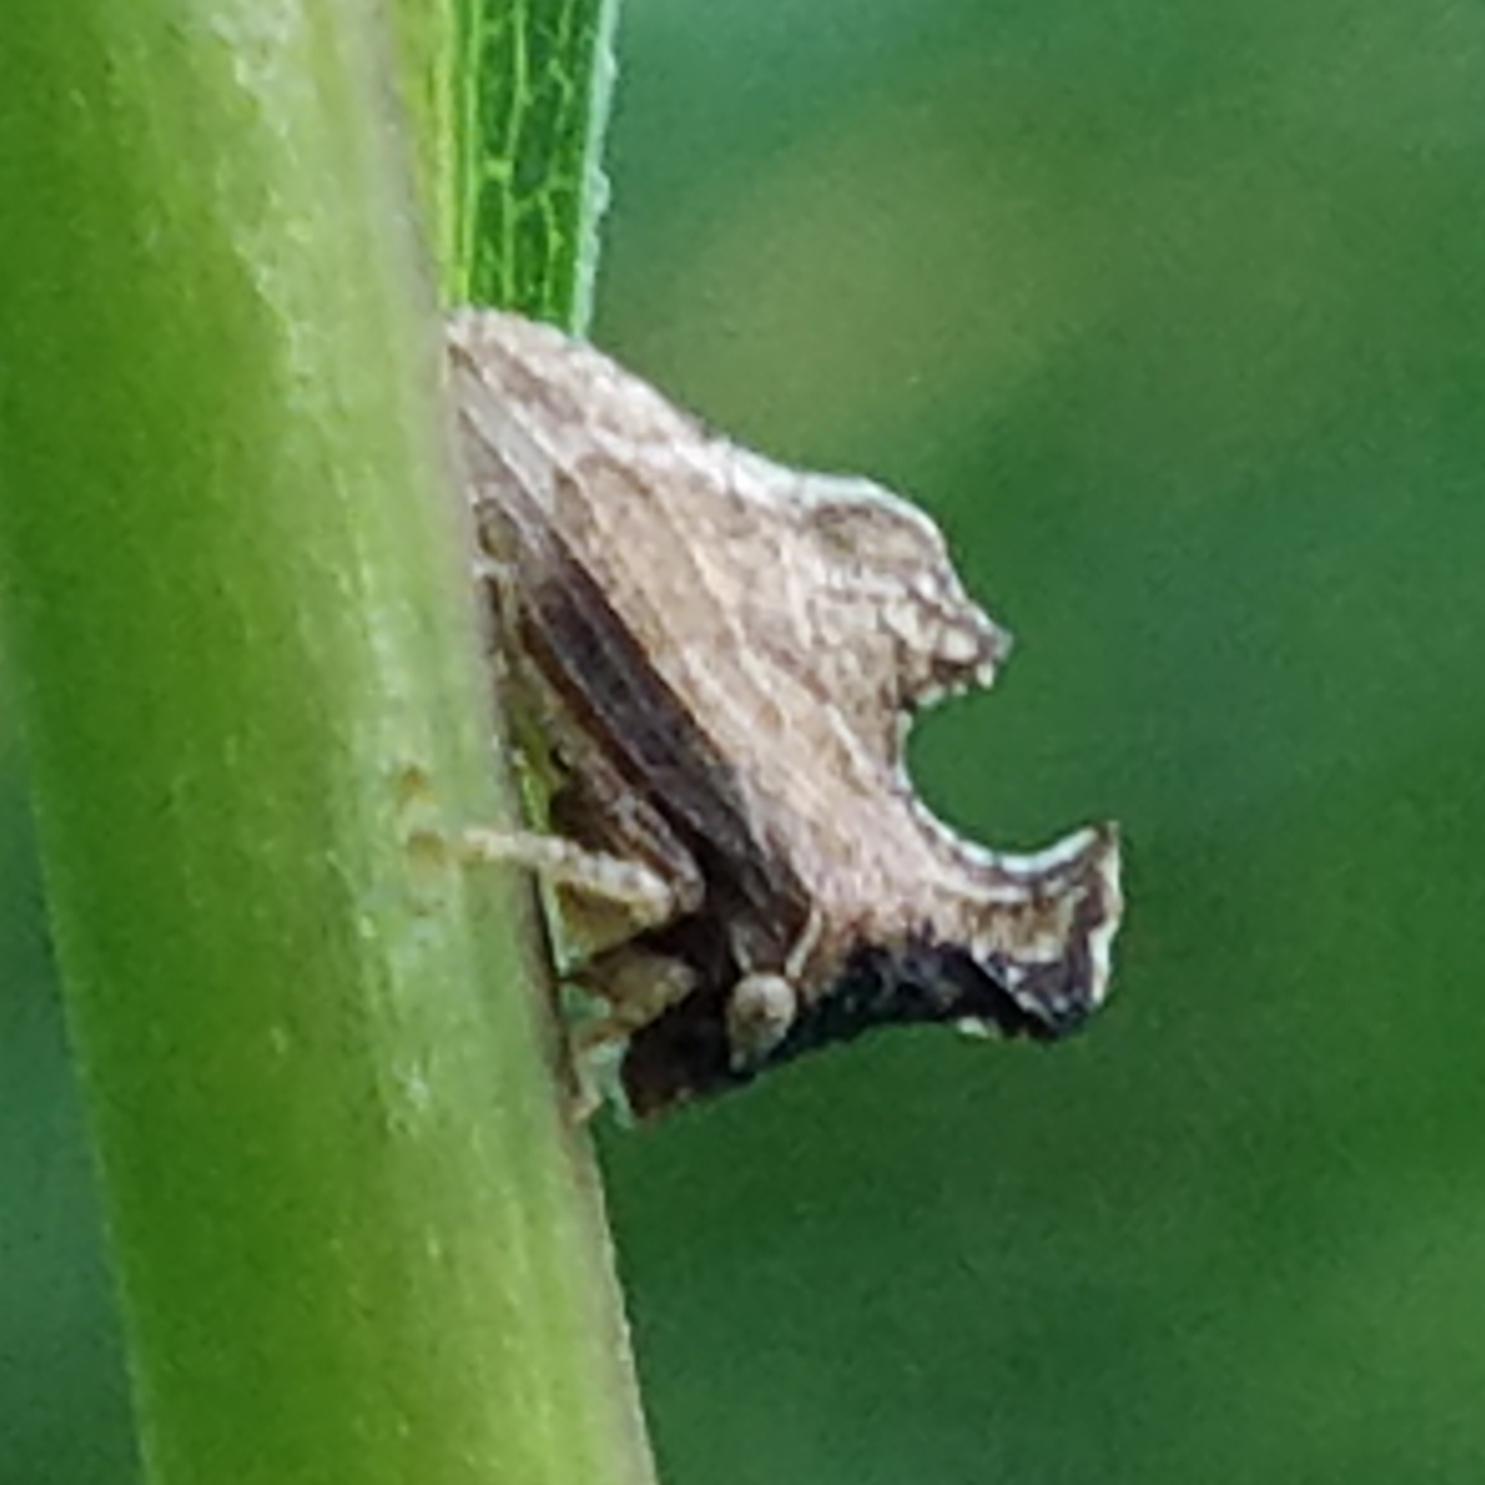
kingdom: Animalia
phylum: Arthropoda
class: Insecta
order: Hemiptera
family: Membracidae
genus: Entylia
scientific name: Entylia carinata
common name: Keeled treehopper
